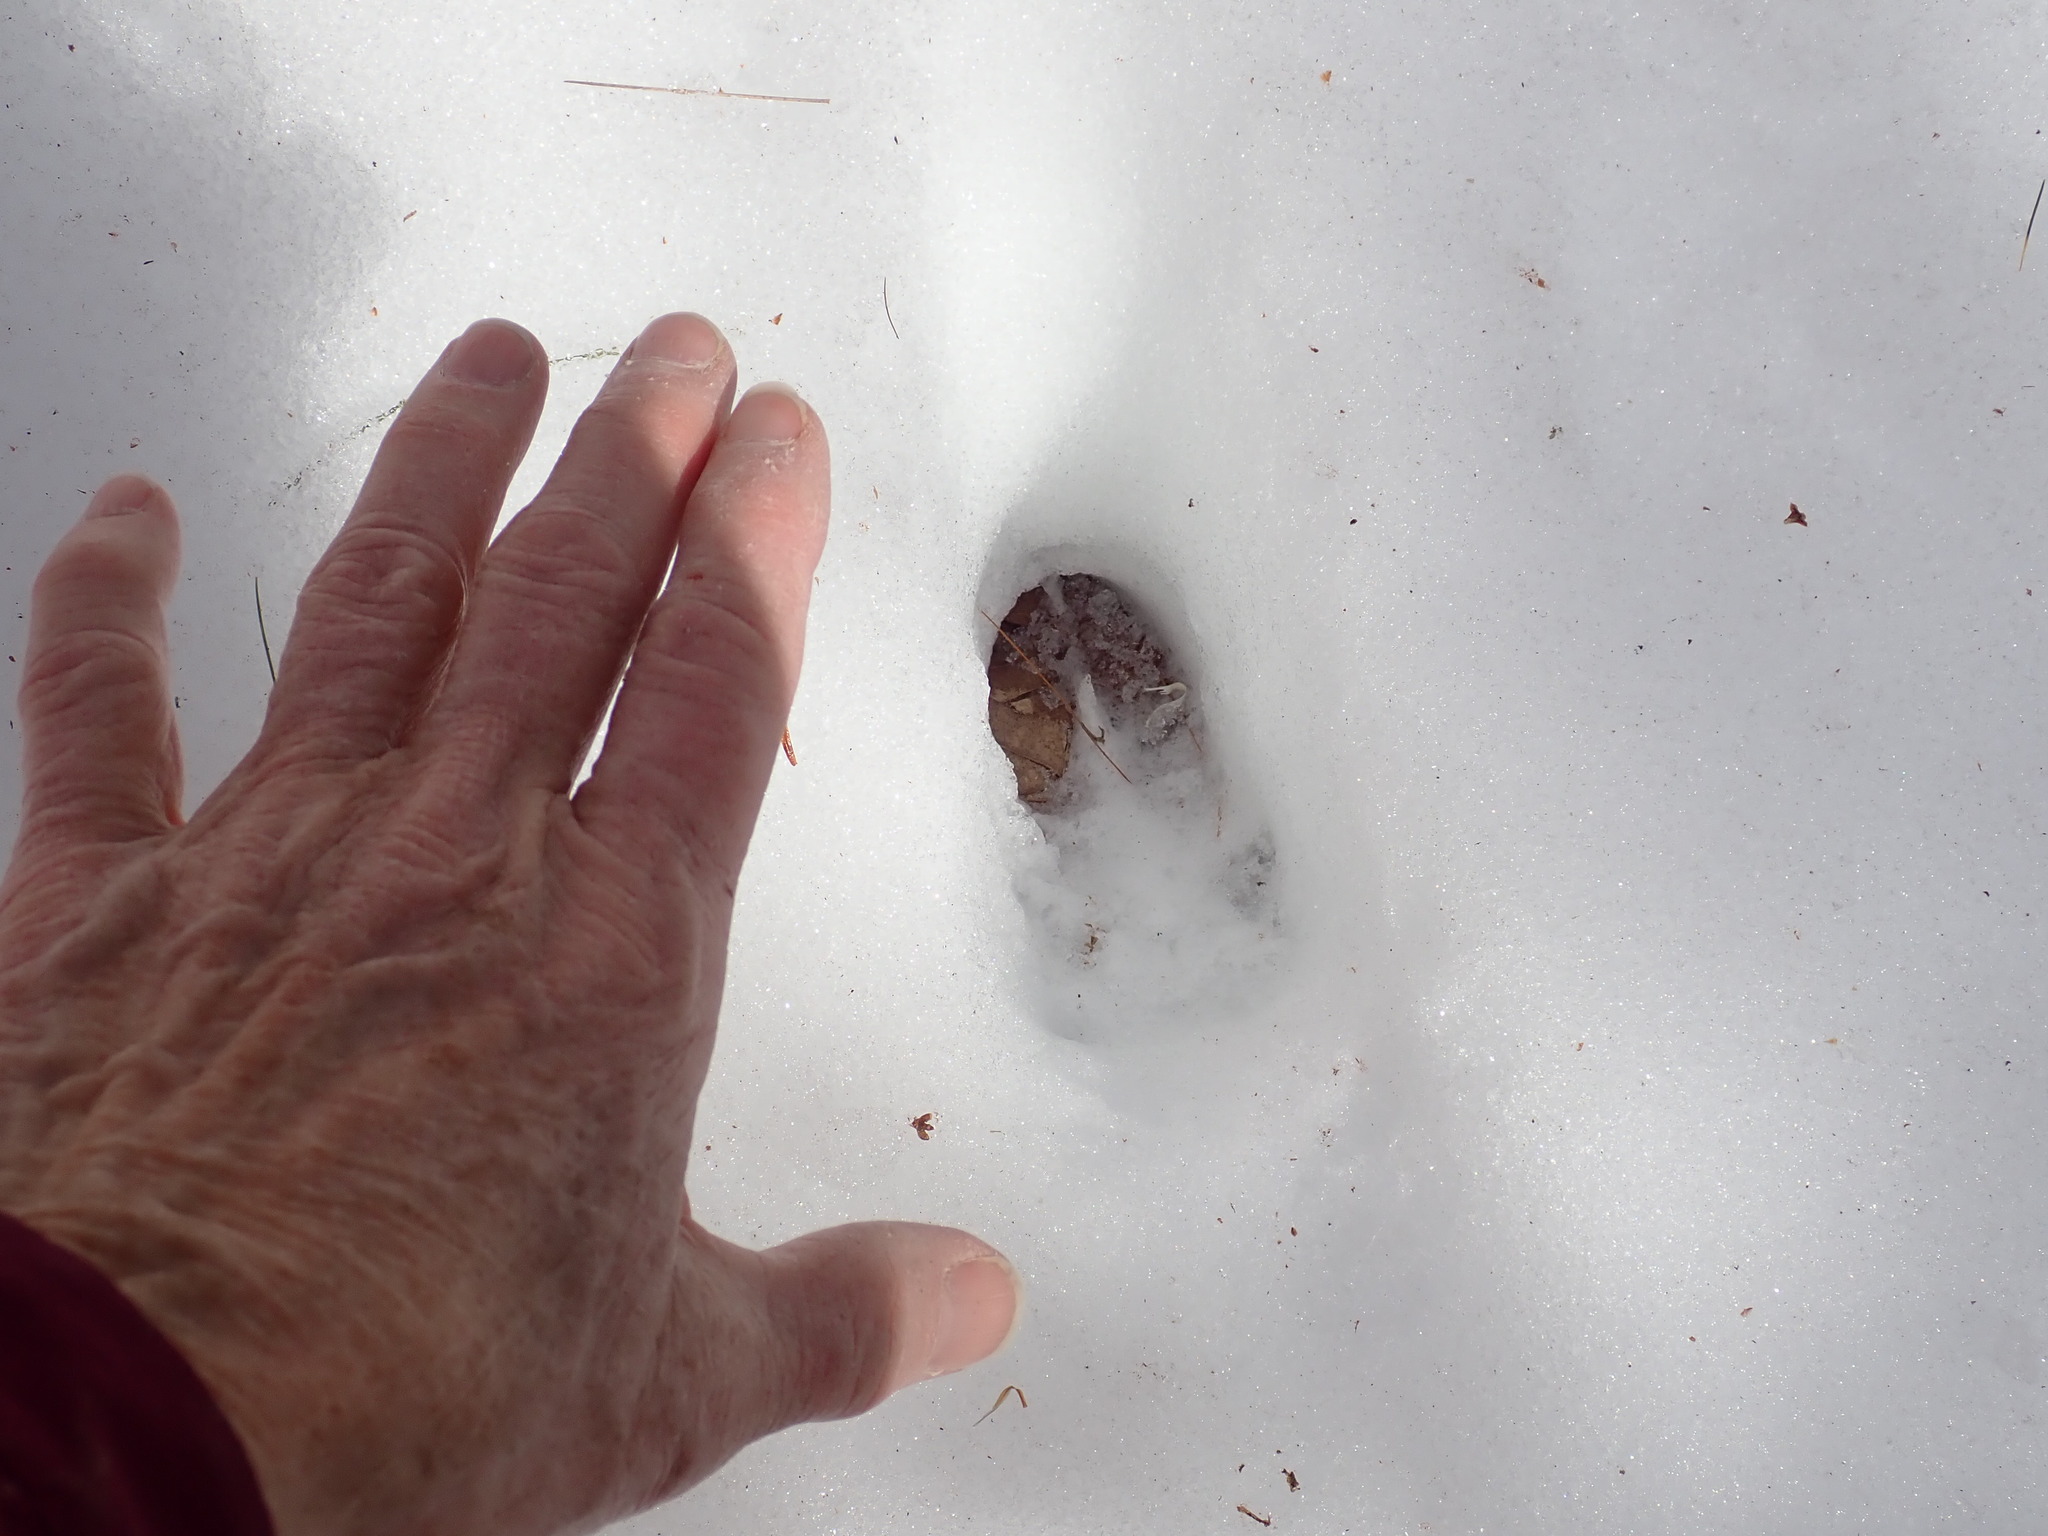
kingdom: Animalia
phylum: Chordata
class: Mammalia
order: Artiodactyla
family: Cervidae
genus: Odocoileus
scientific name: Odocoileus virginianus
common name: White-tailed deer
